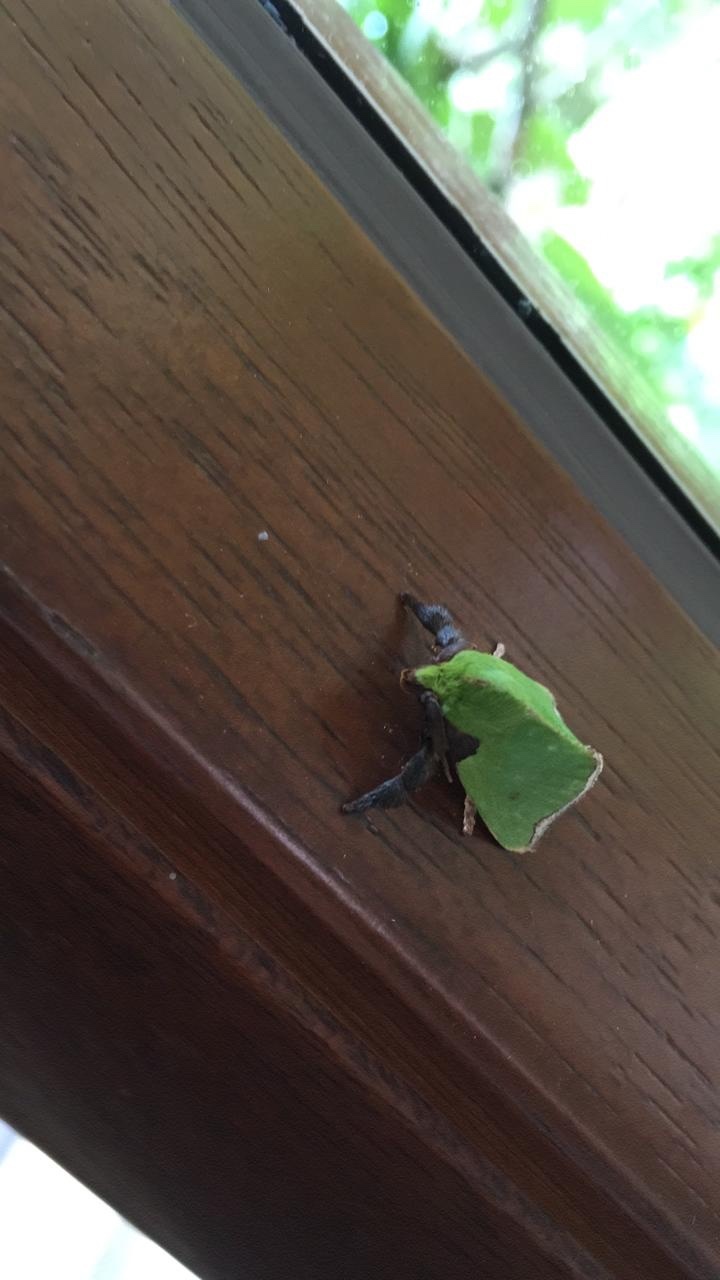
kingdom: Animalia
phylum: Arthropoda
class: Insecta
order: Lepidoptera
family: Limacodidae
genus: Parasa
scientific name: Parasa joanae
